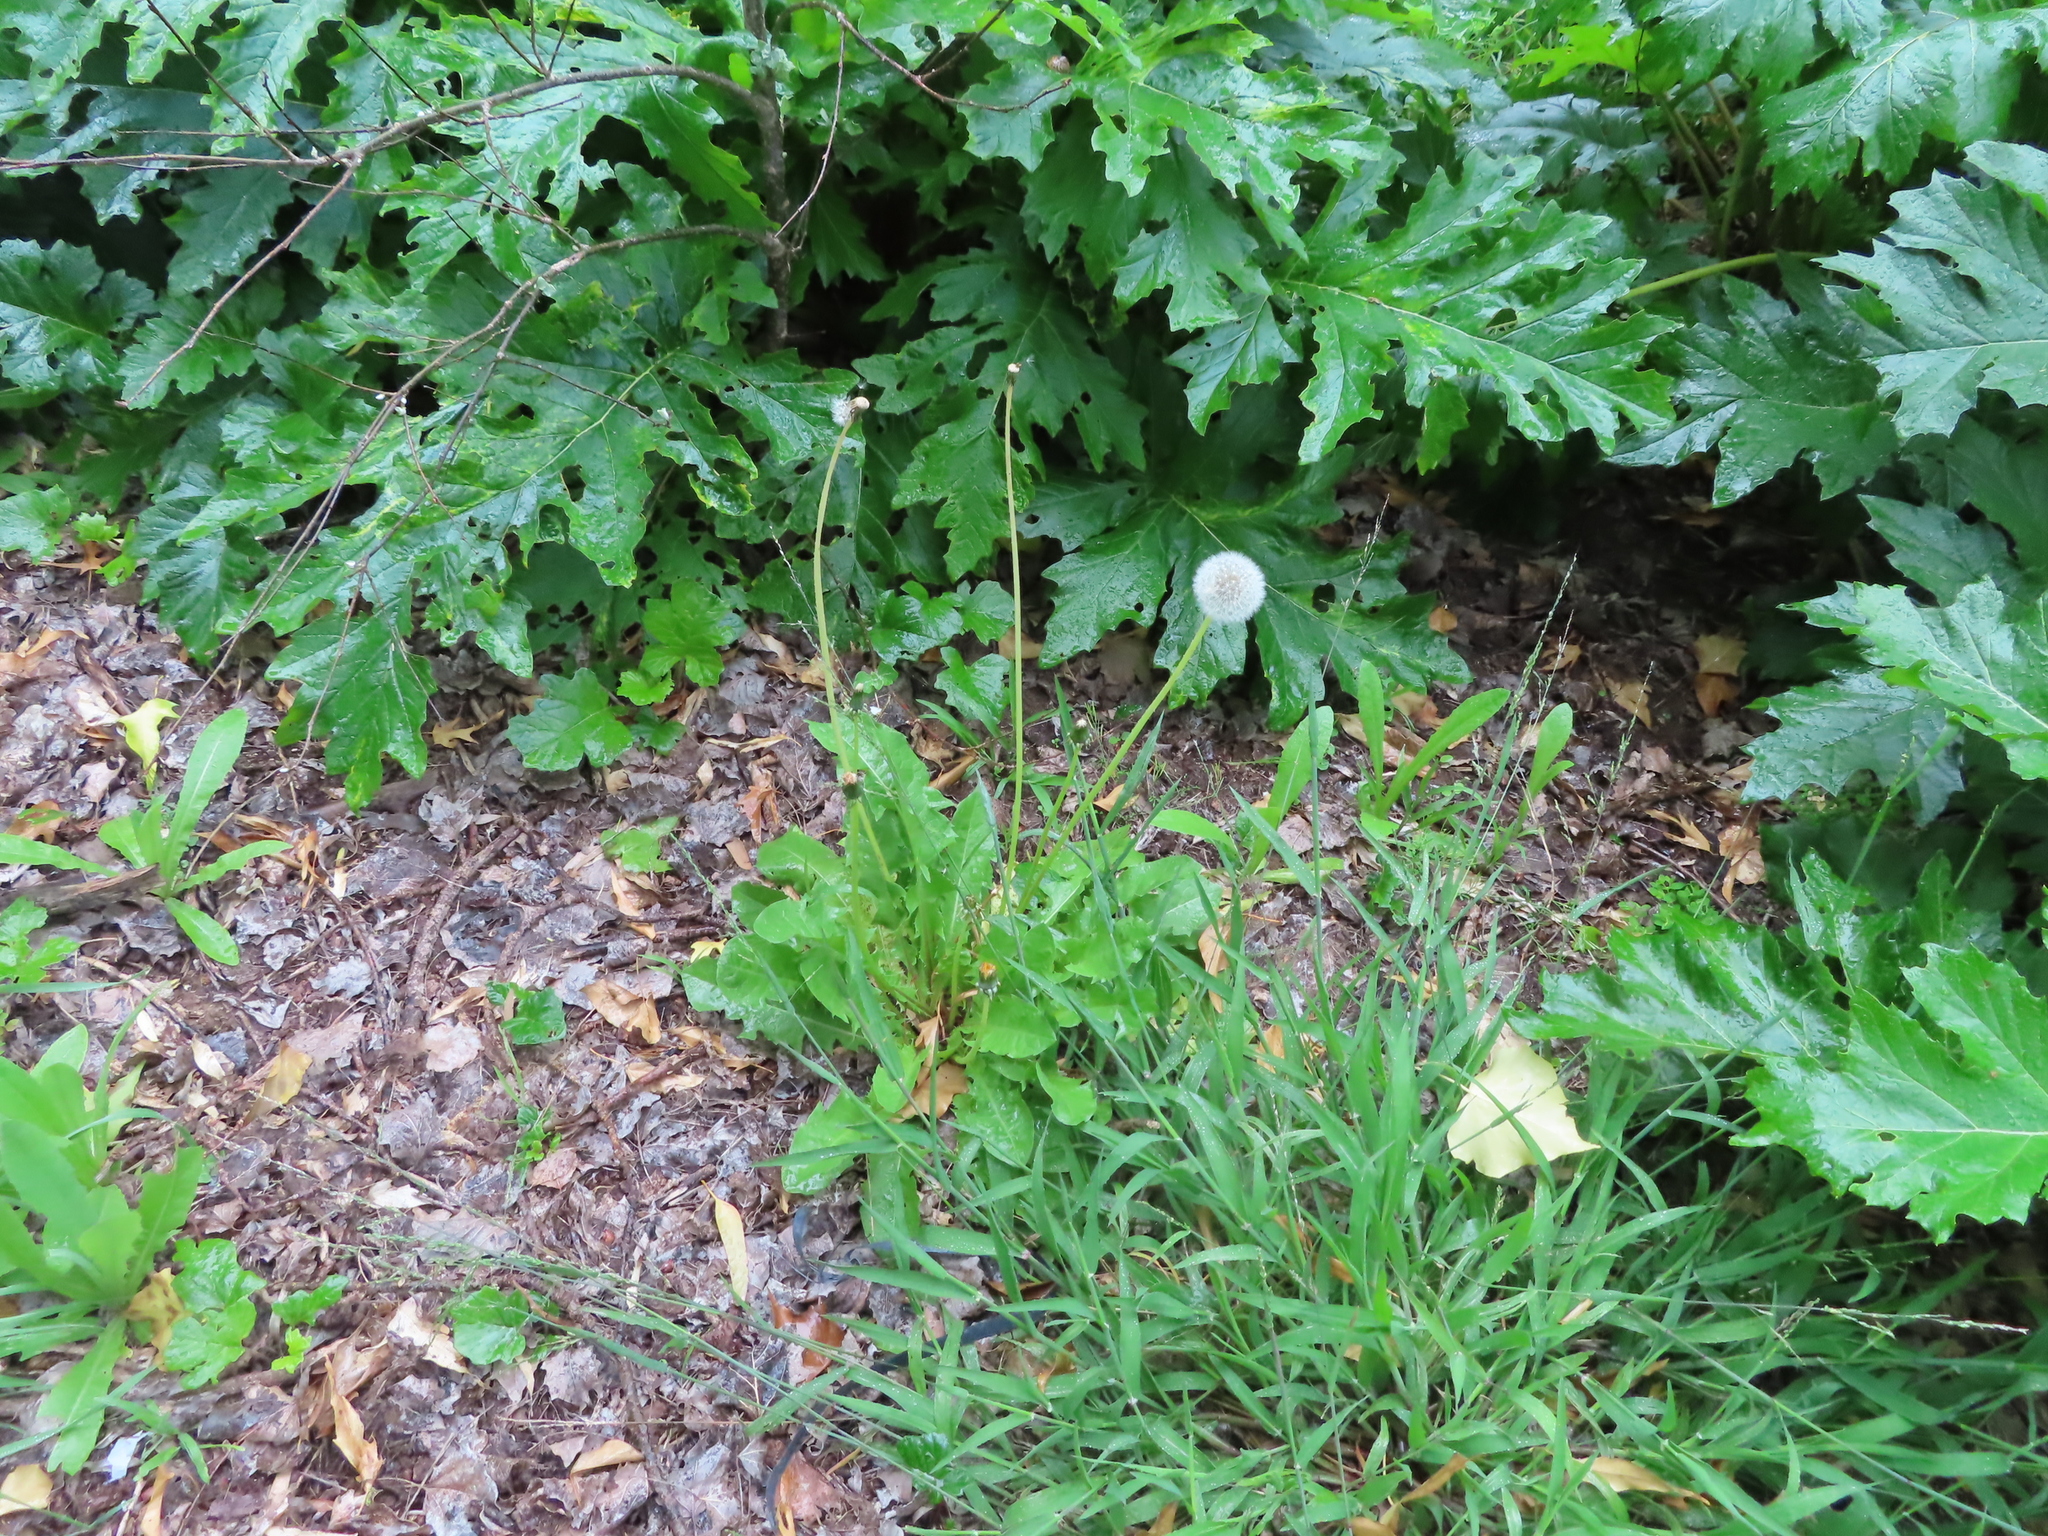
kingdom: Plantae
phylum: Tracheophyta
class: Magnoliopsida
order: Asterales
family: Asteraceae
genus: Taraxacum
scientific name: Taraxacum officinale
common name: Common dandelion
